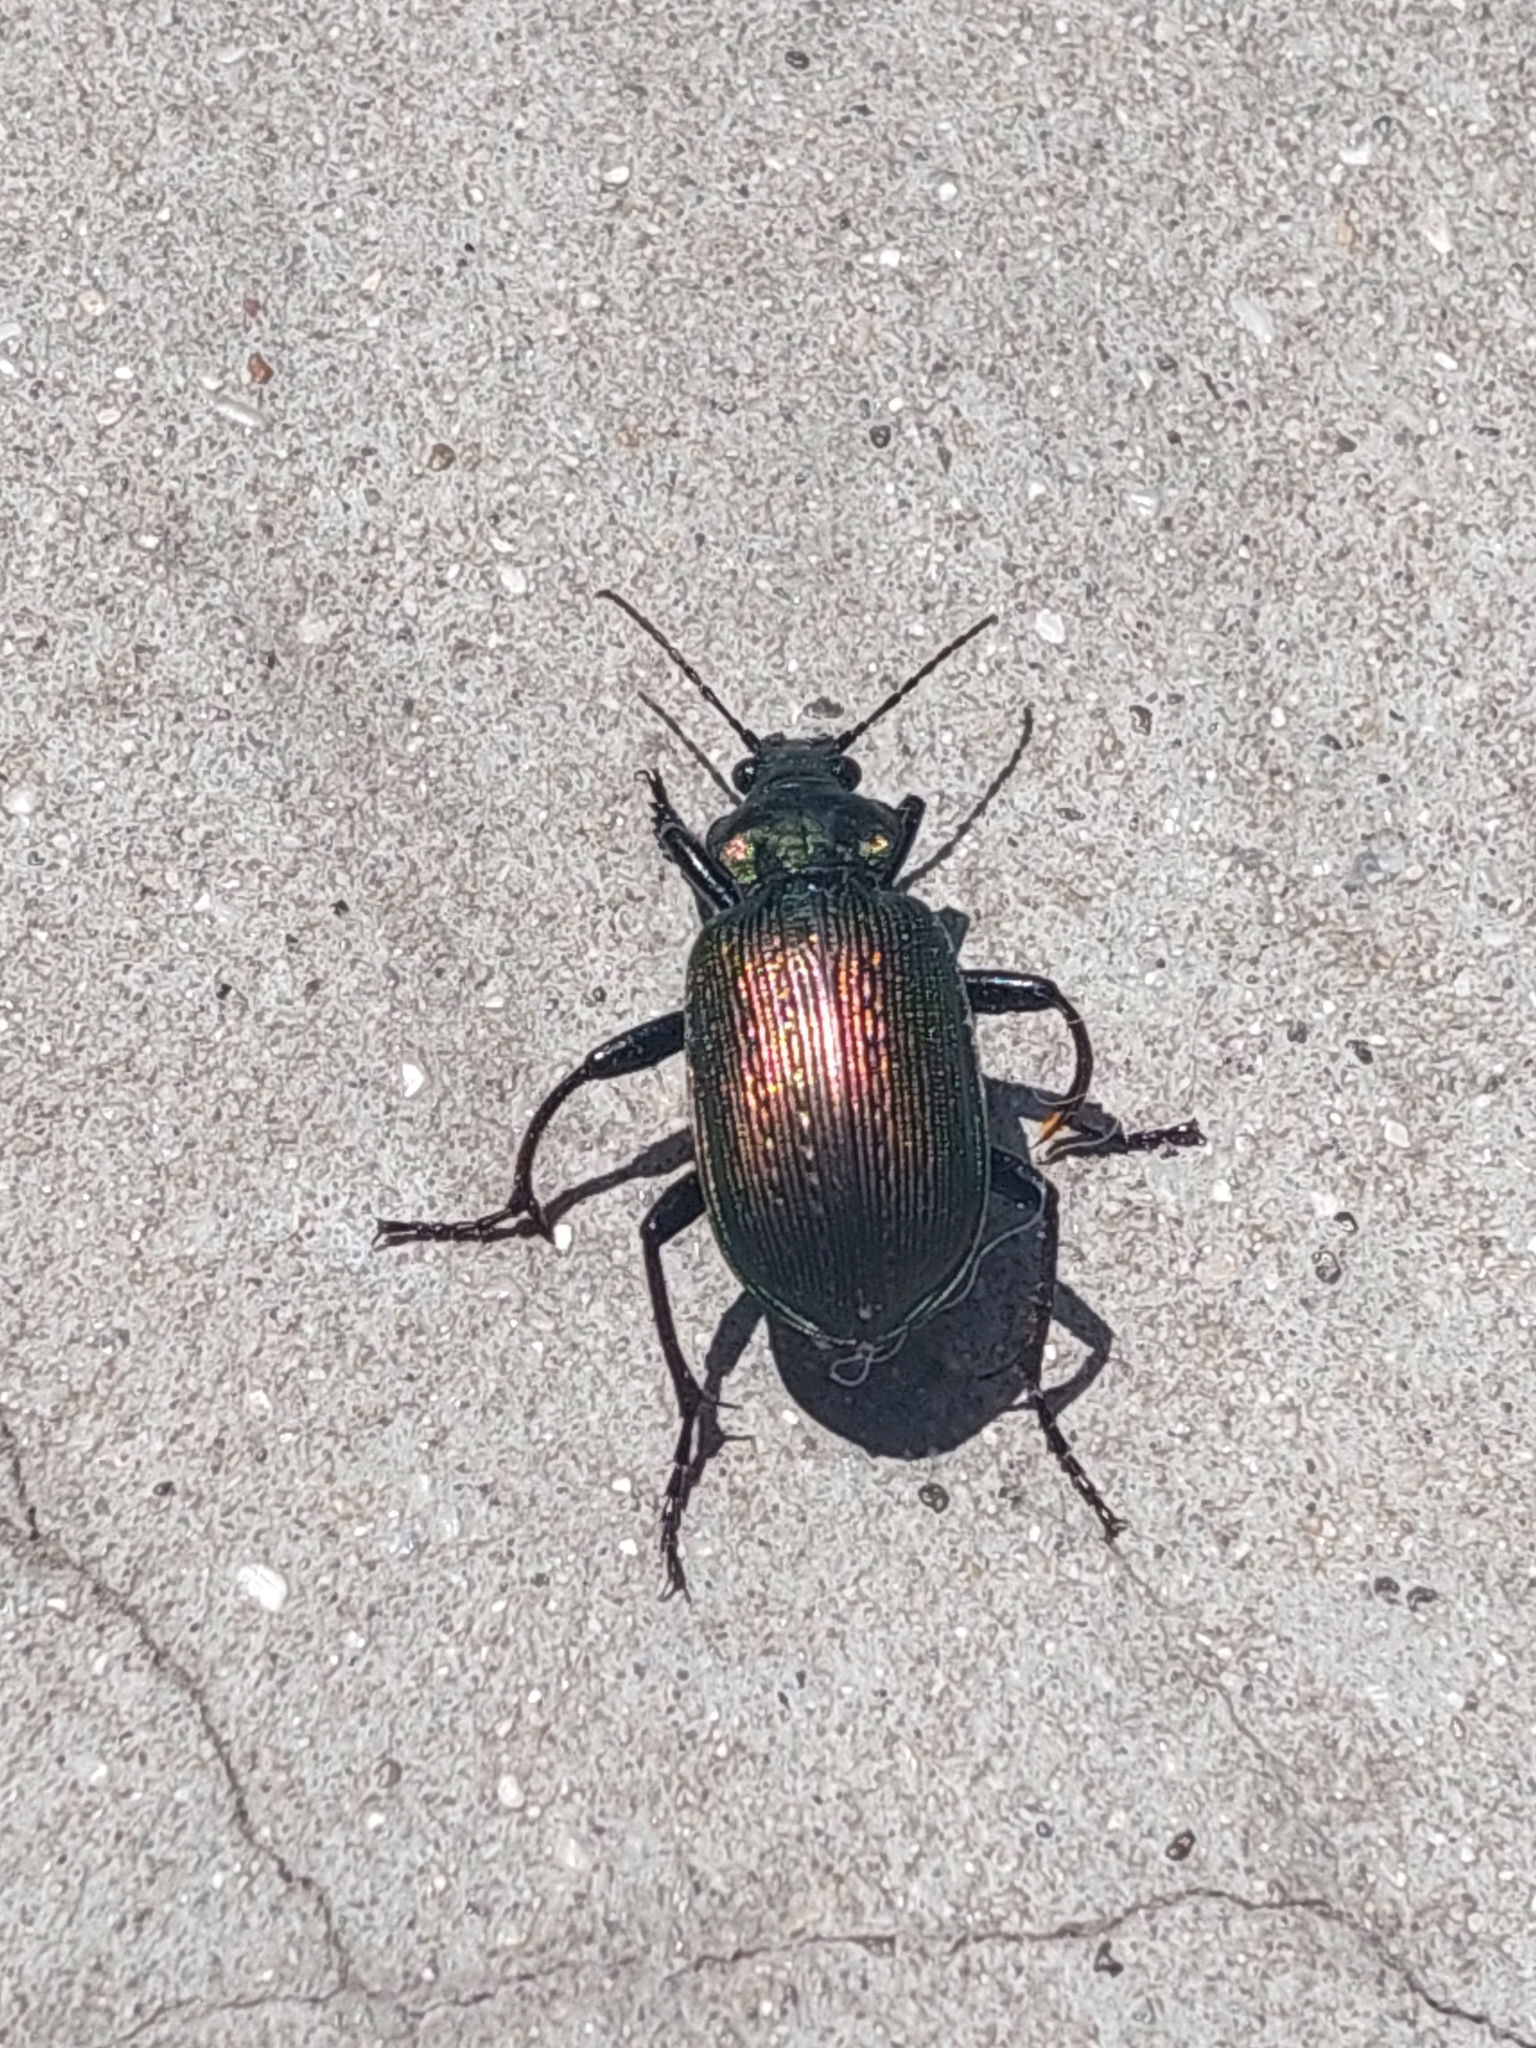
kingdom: Animalia
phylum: Arthropoda
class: Insecta
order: Coleoptera
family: Carabidae
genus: Calosoma
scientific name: Calosoma argentinense
